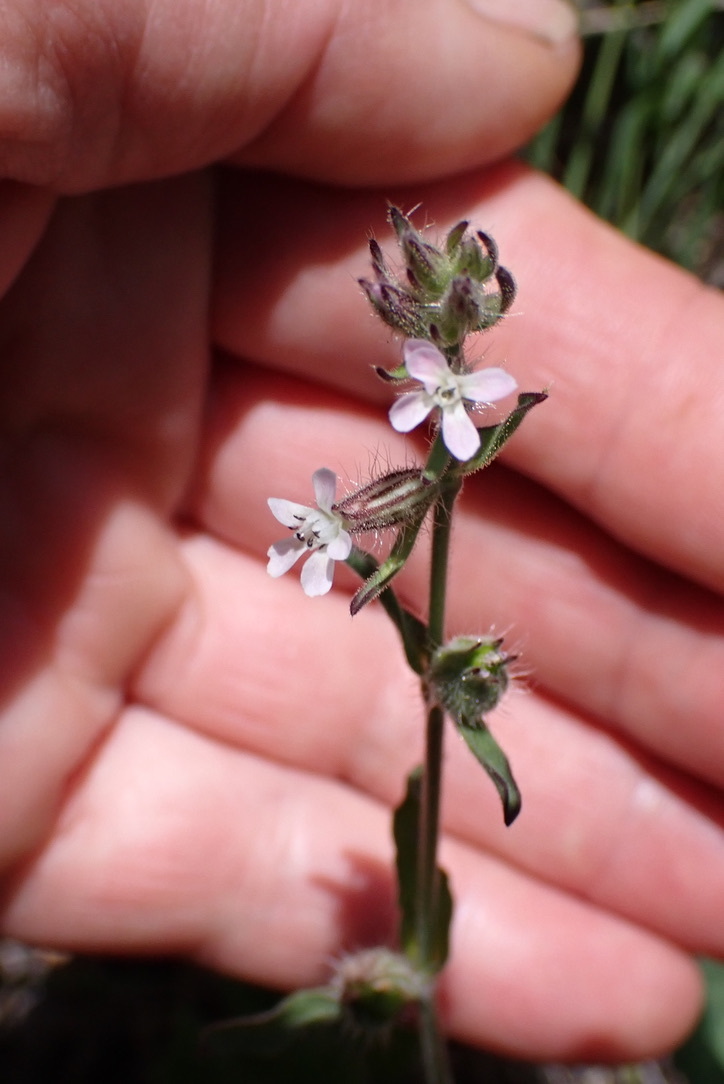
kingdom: Plantae
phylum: Tracheophyta
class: Magnoliopsida
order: Caryophyllales
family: Caryophyllaceae
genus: Silene
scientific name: Silene gallica
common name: Small-flowered catchfly
